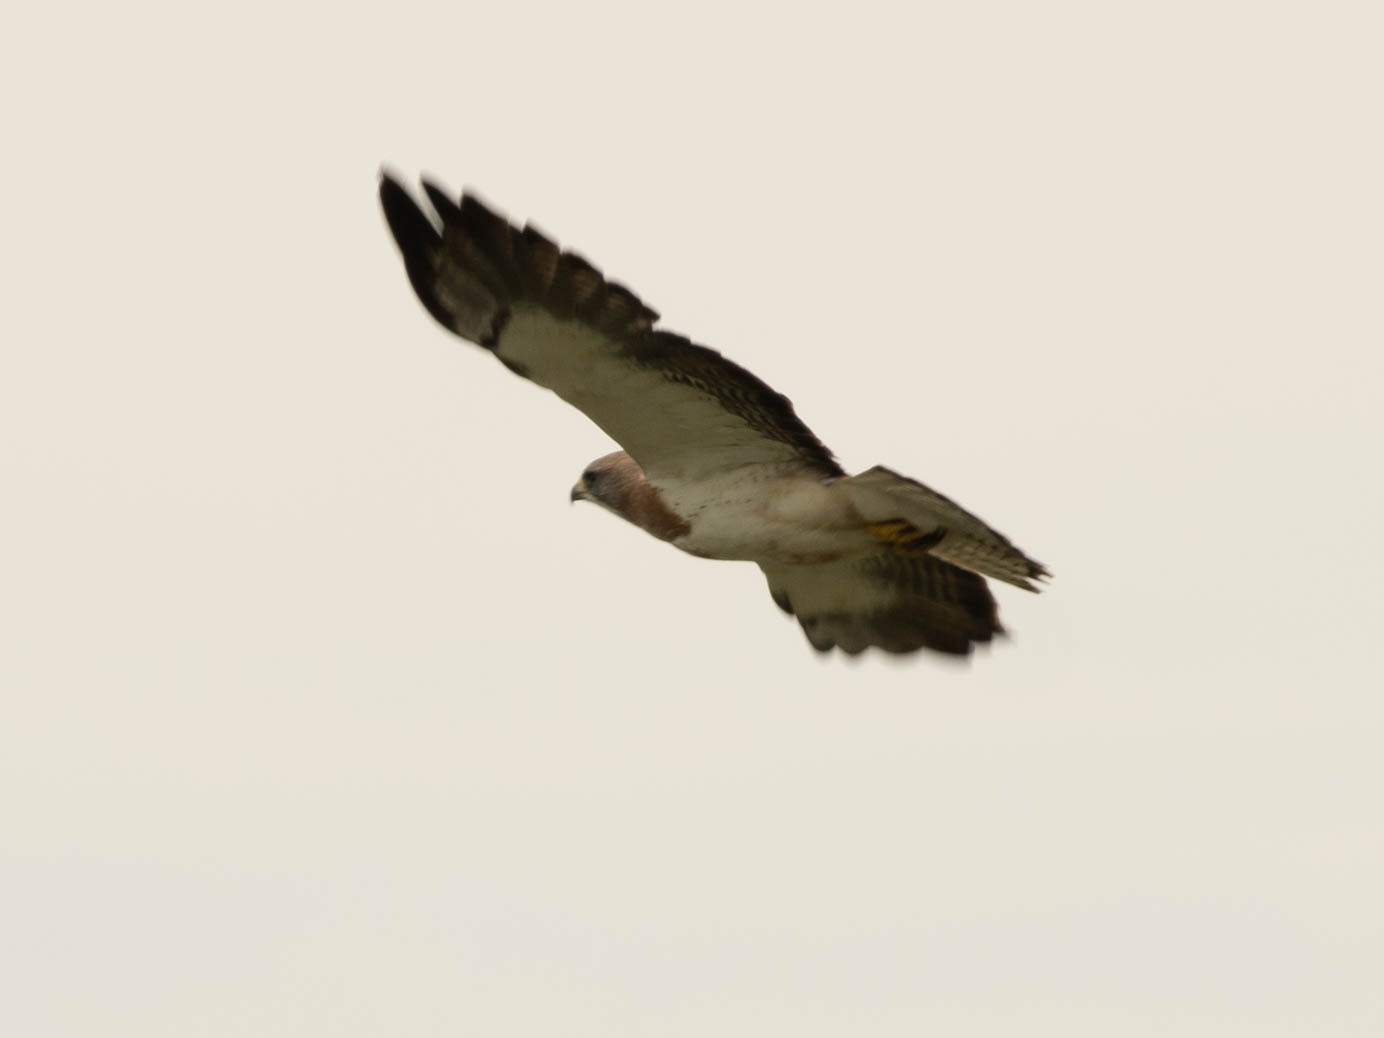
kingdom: Animalia
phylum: Chordata
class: Aves
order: Accipitriformes
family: Accipitridae
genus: Buteo
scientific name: Buteo swainsoni
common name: Swainson's hawk
